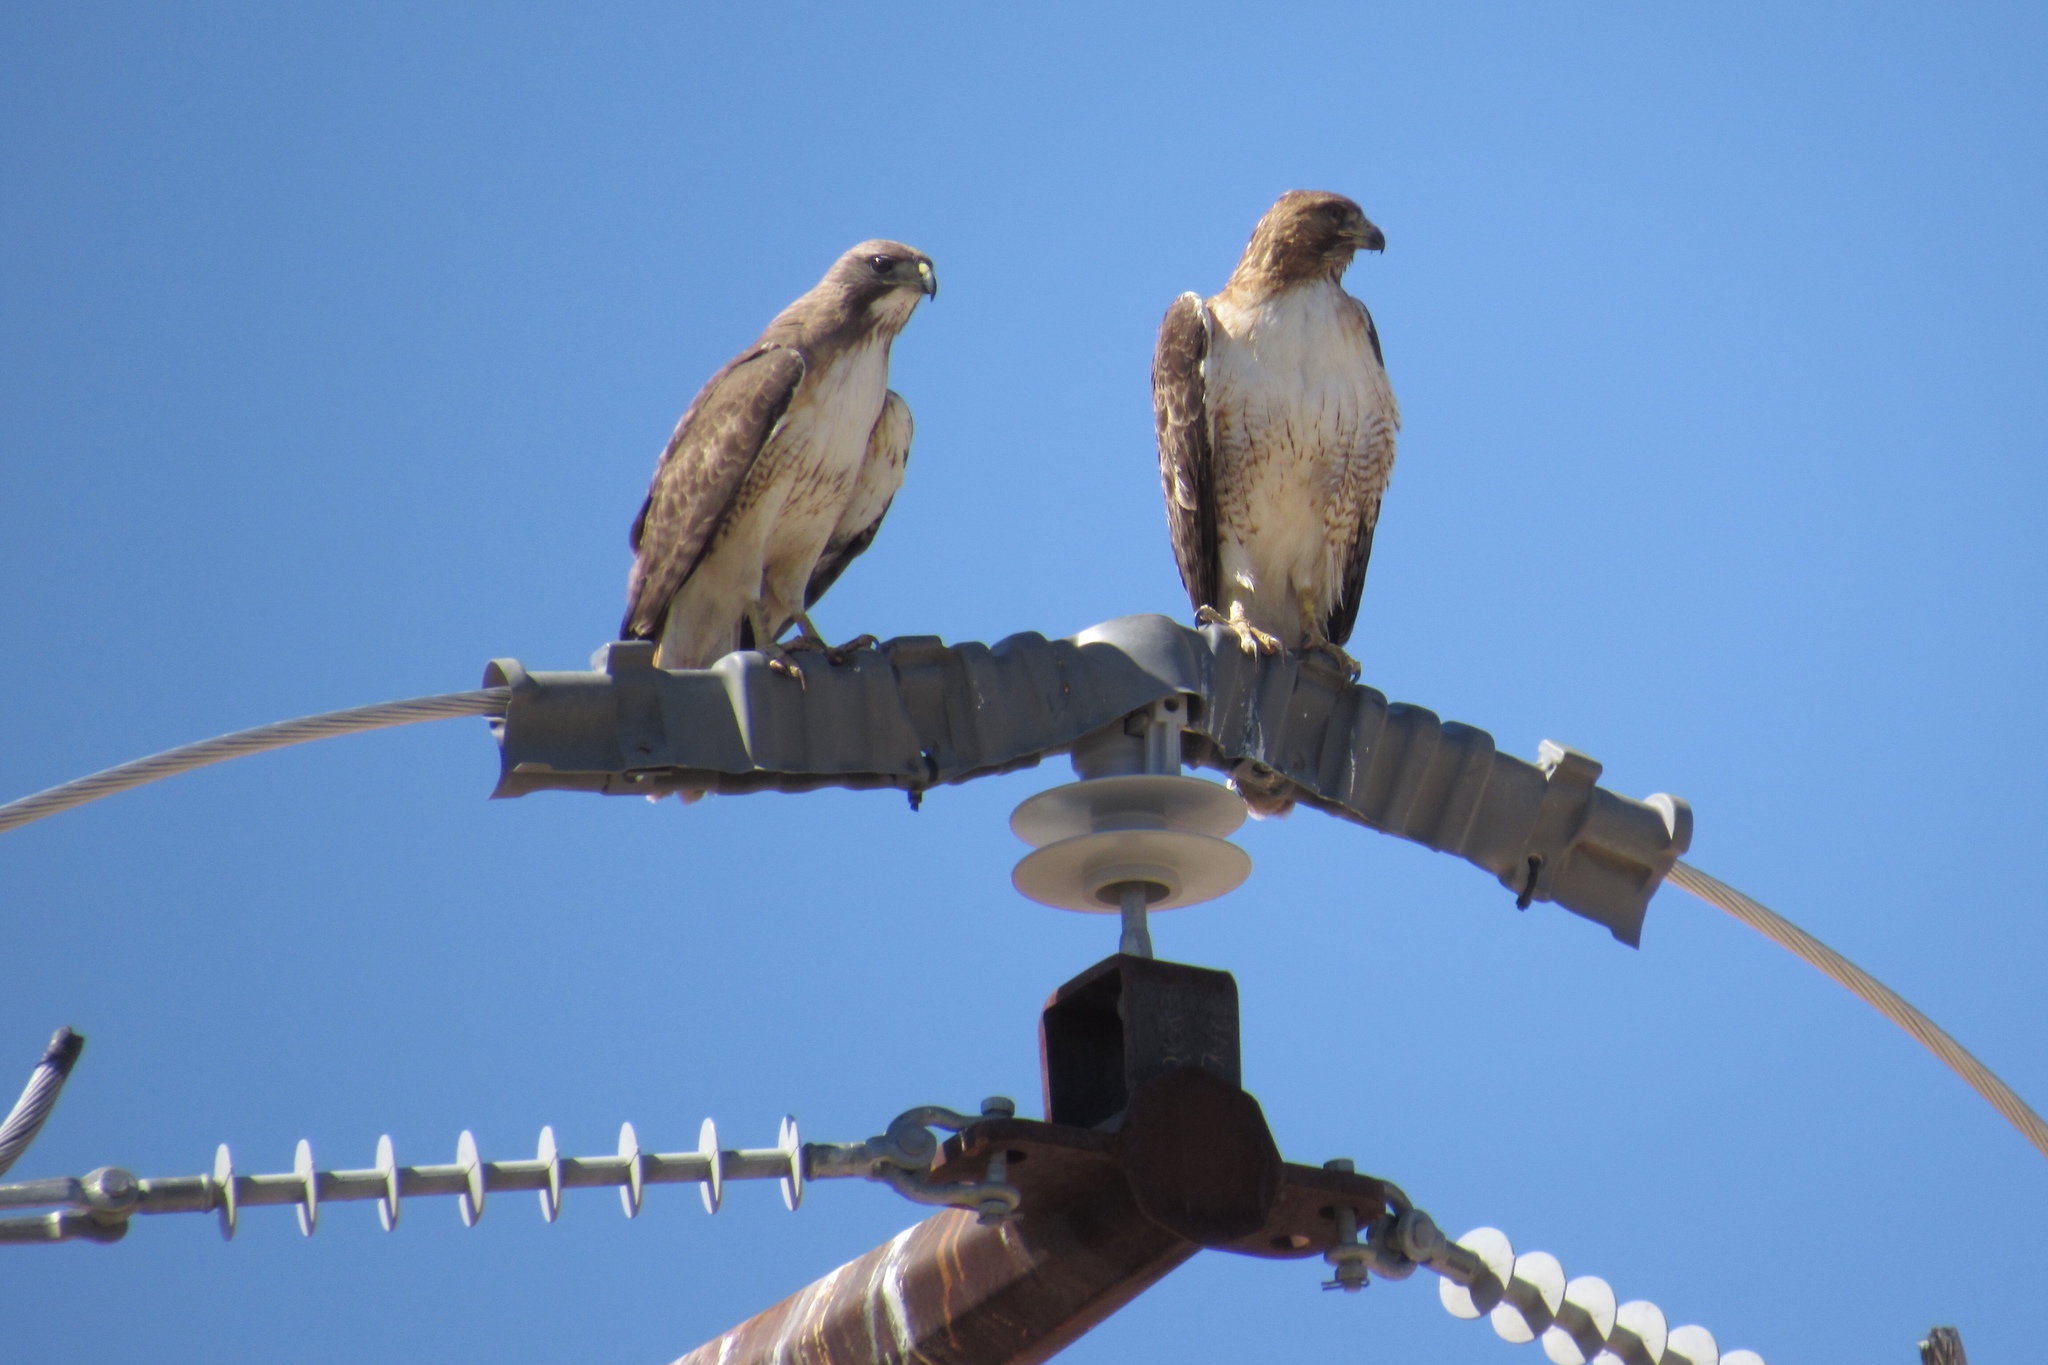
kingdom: Animalia
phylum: Chordata
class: Aves
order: Accipitriformes
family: Accipitridae
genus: Buteo
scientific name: Buteo jamaicensis
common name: Red-tailed hawk
